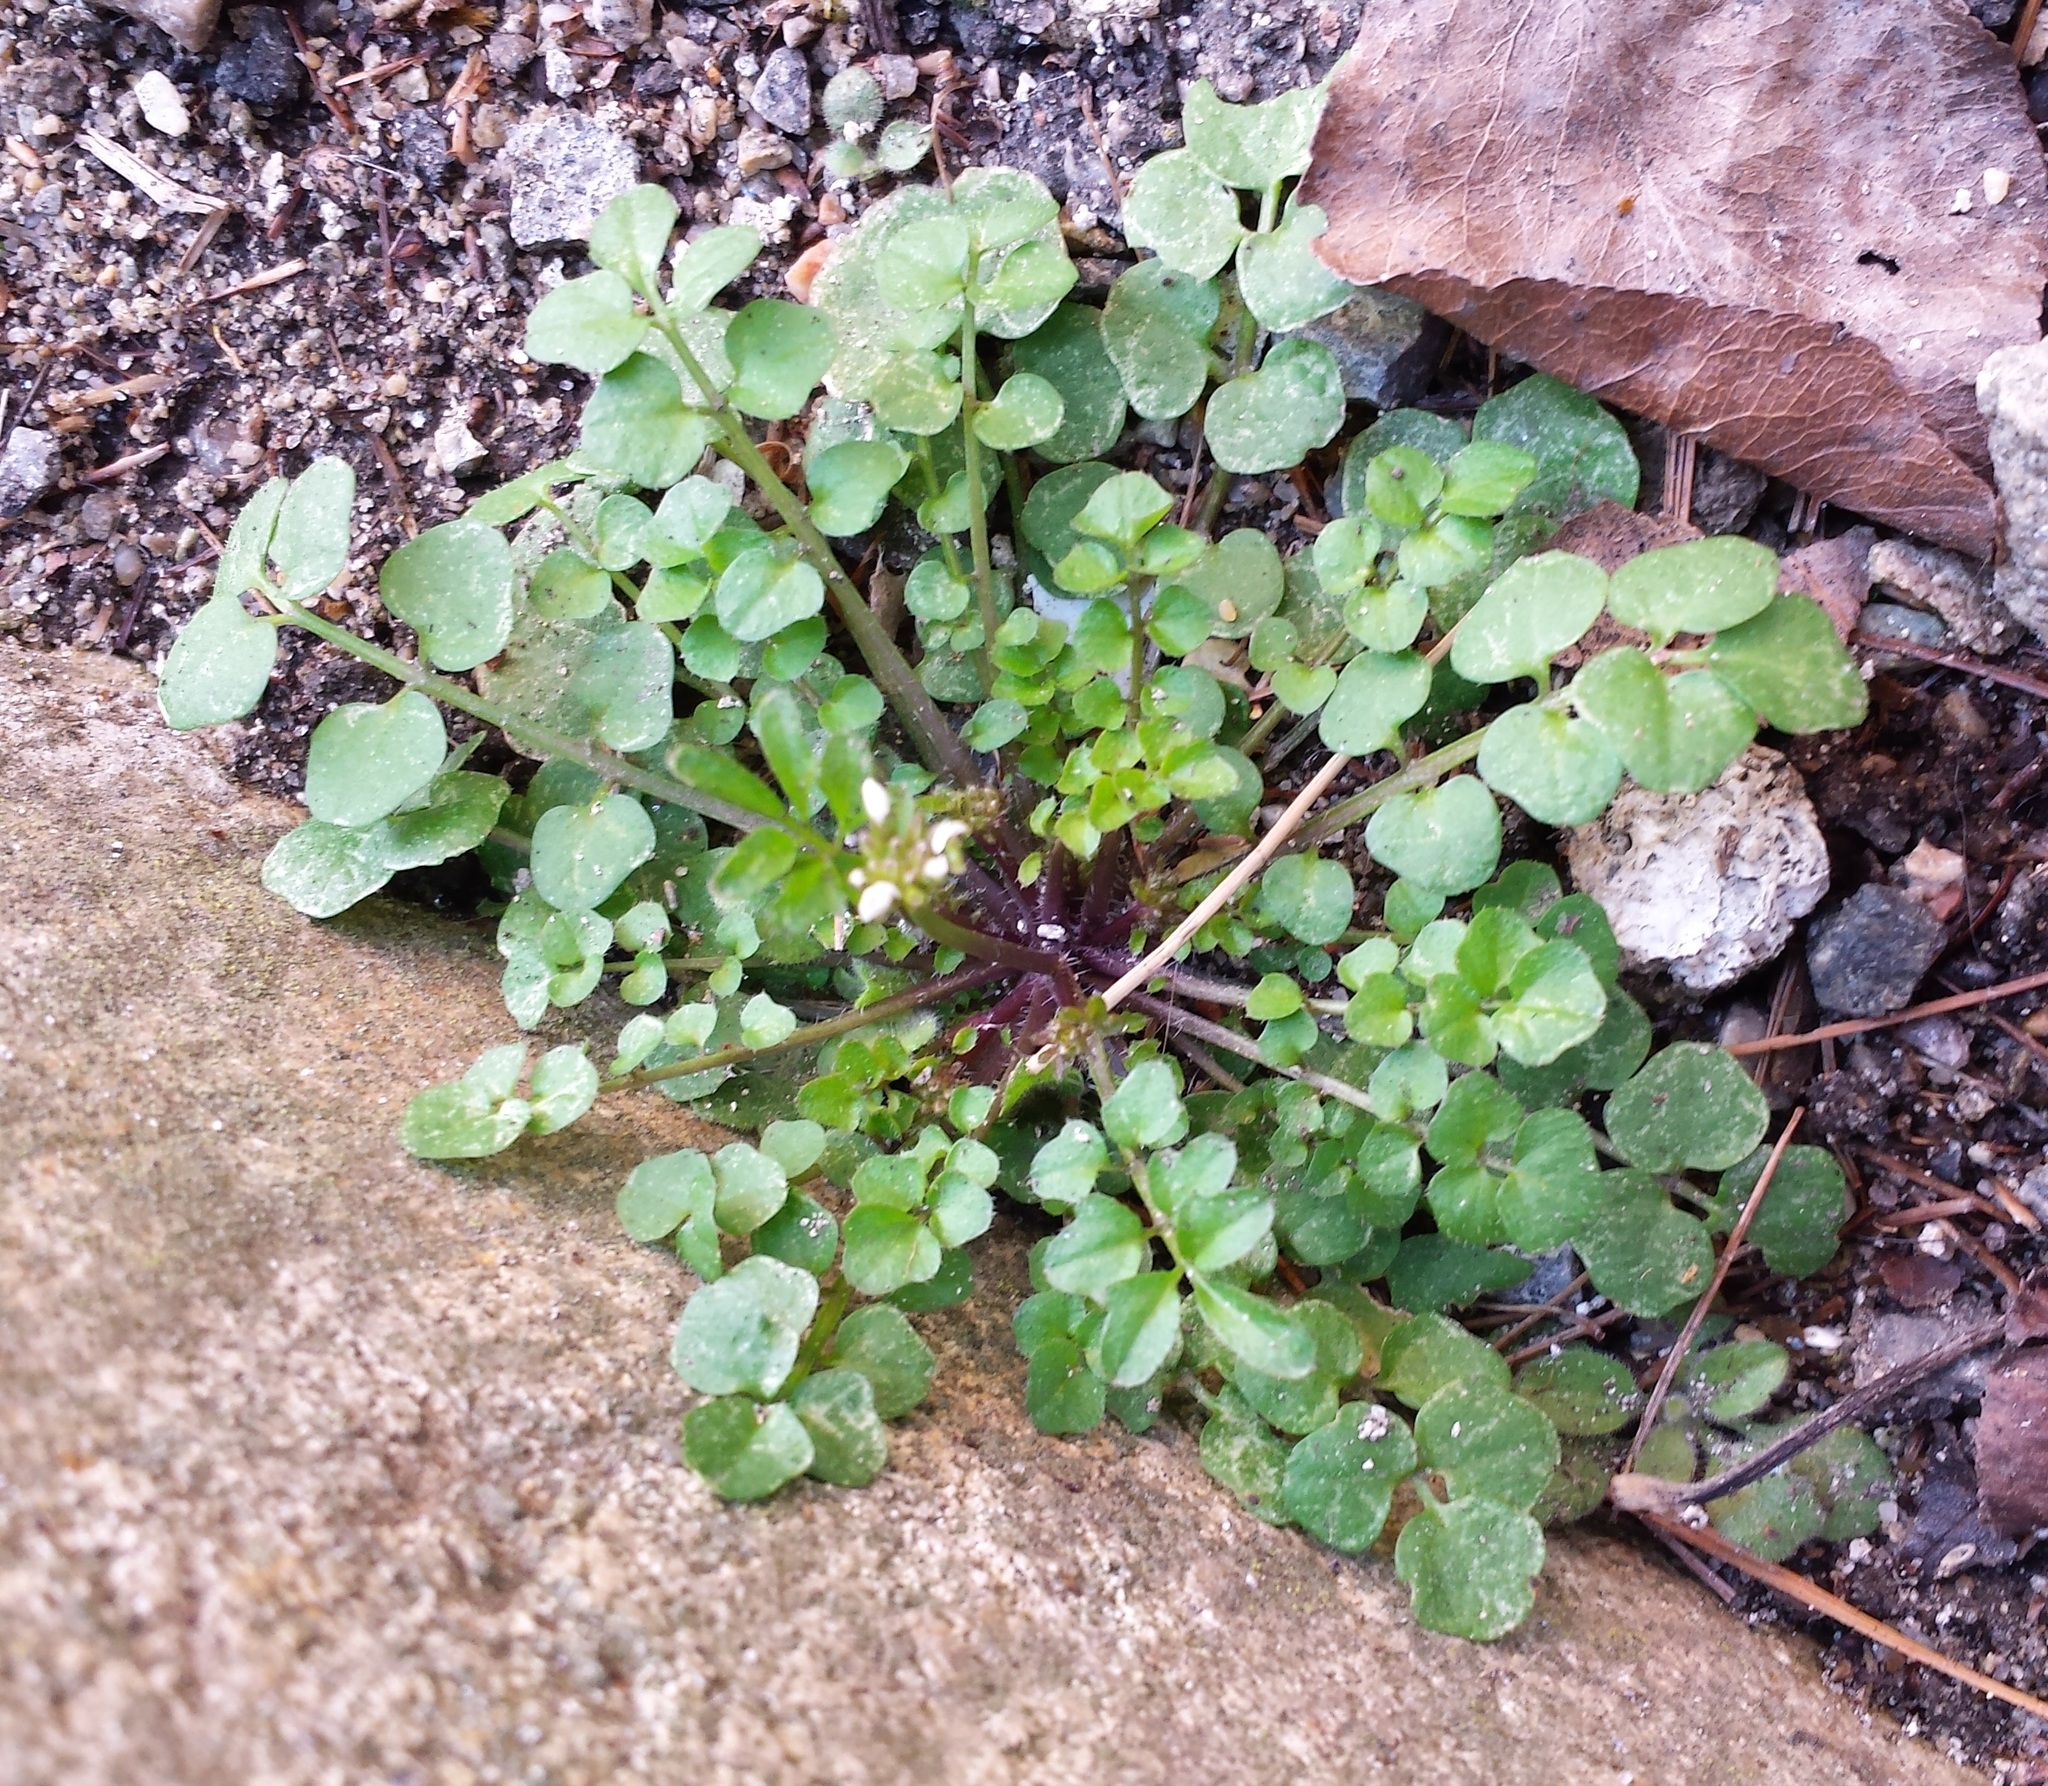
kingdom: Plantae
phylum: Tracheophyta
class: Magnoliopsida
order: Brassicales
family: Brassicaceae
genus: Cardamine
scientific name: Cardamine hirsuta
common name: Hairy bittercress
